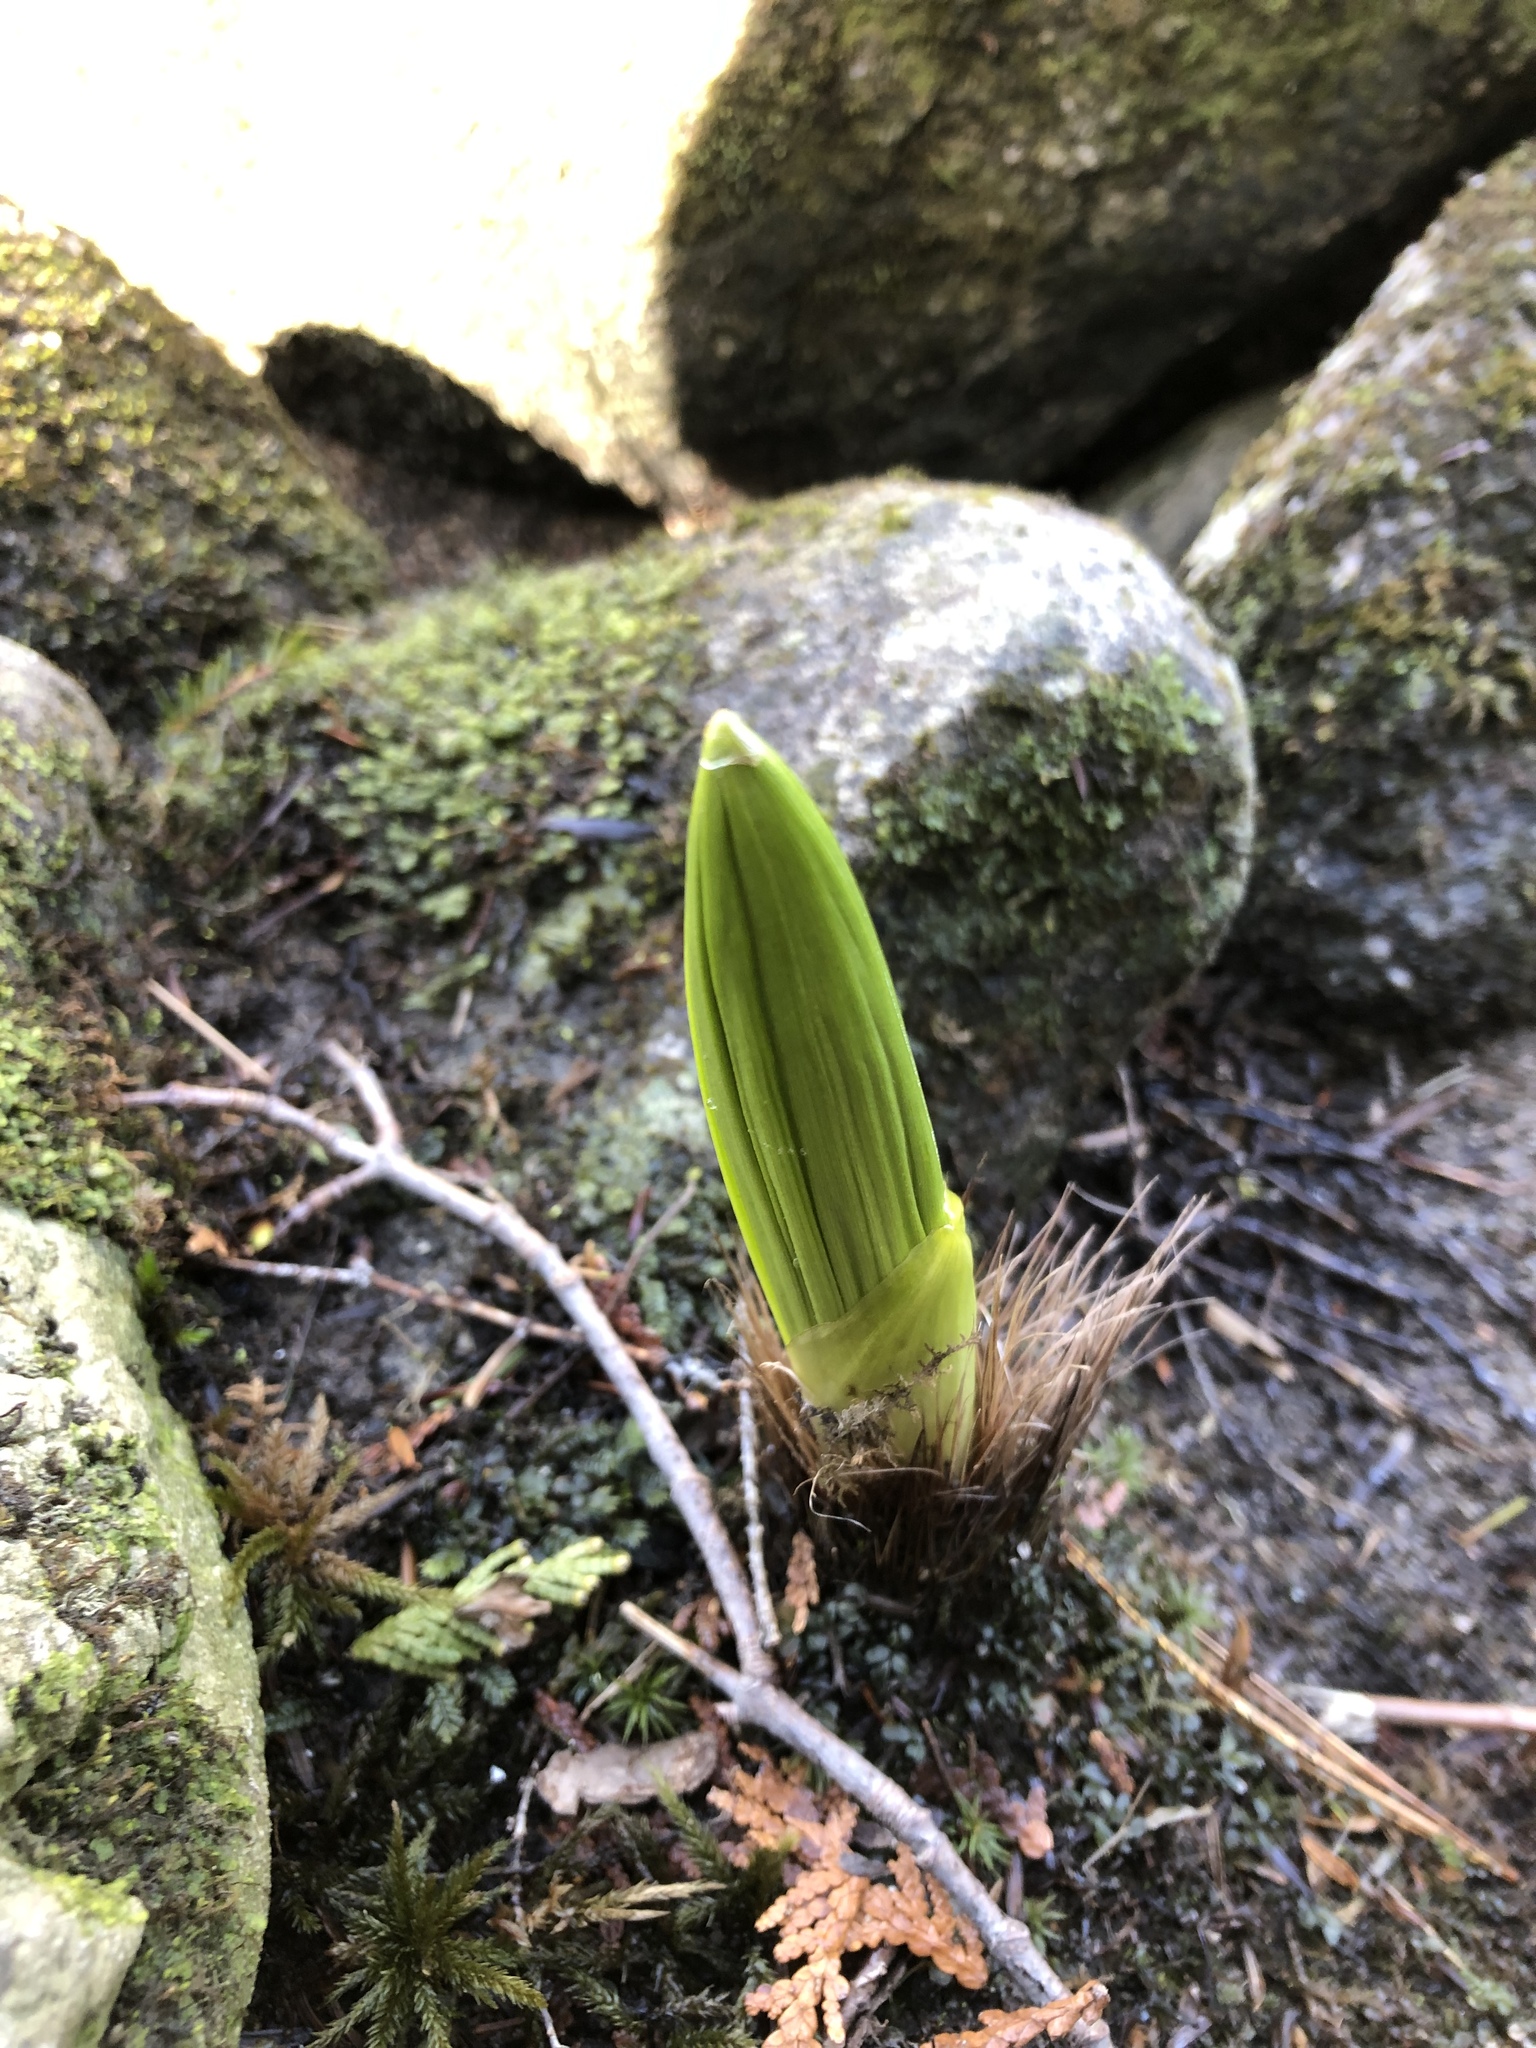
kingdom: Plantae
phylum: Tracheophyta
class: Liliopsida
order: Liliales
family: Melanthiaceae
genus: Veratrum
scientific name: Veratrum viride
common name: American false hellebore
